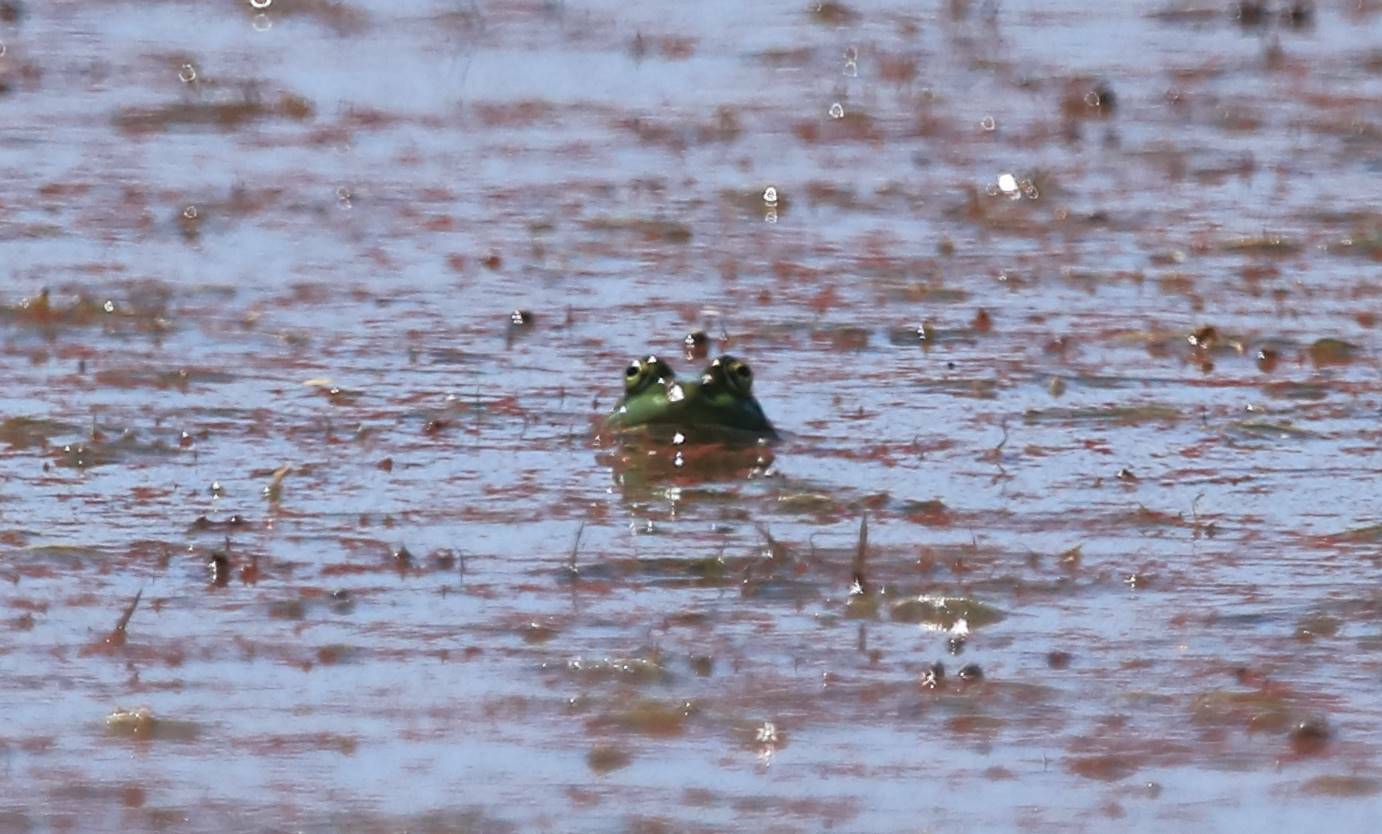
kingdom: Animalia
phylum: Chordata
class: Amphibia
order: Anura
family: Ranidae
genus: Pelophylax
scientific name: Pelophylax saharicus
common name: Sahara frog
